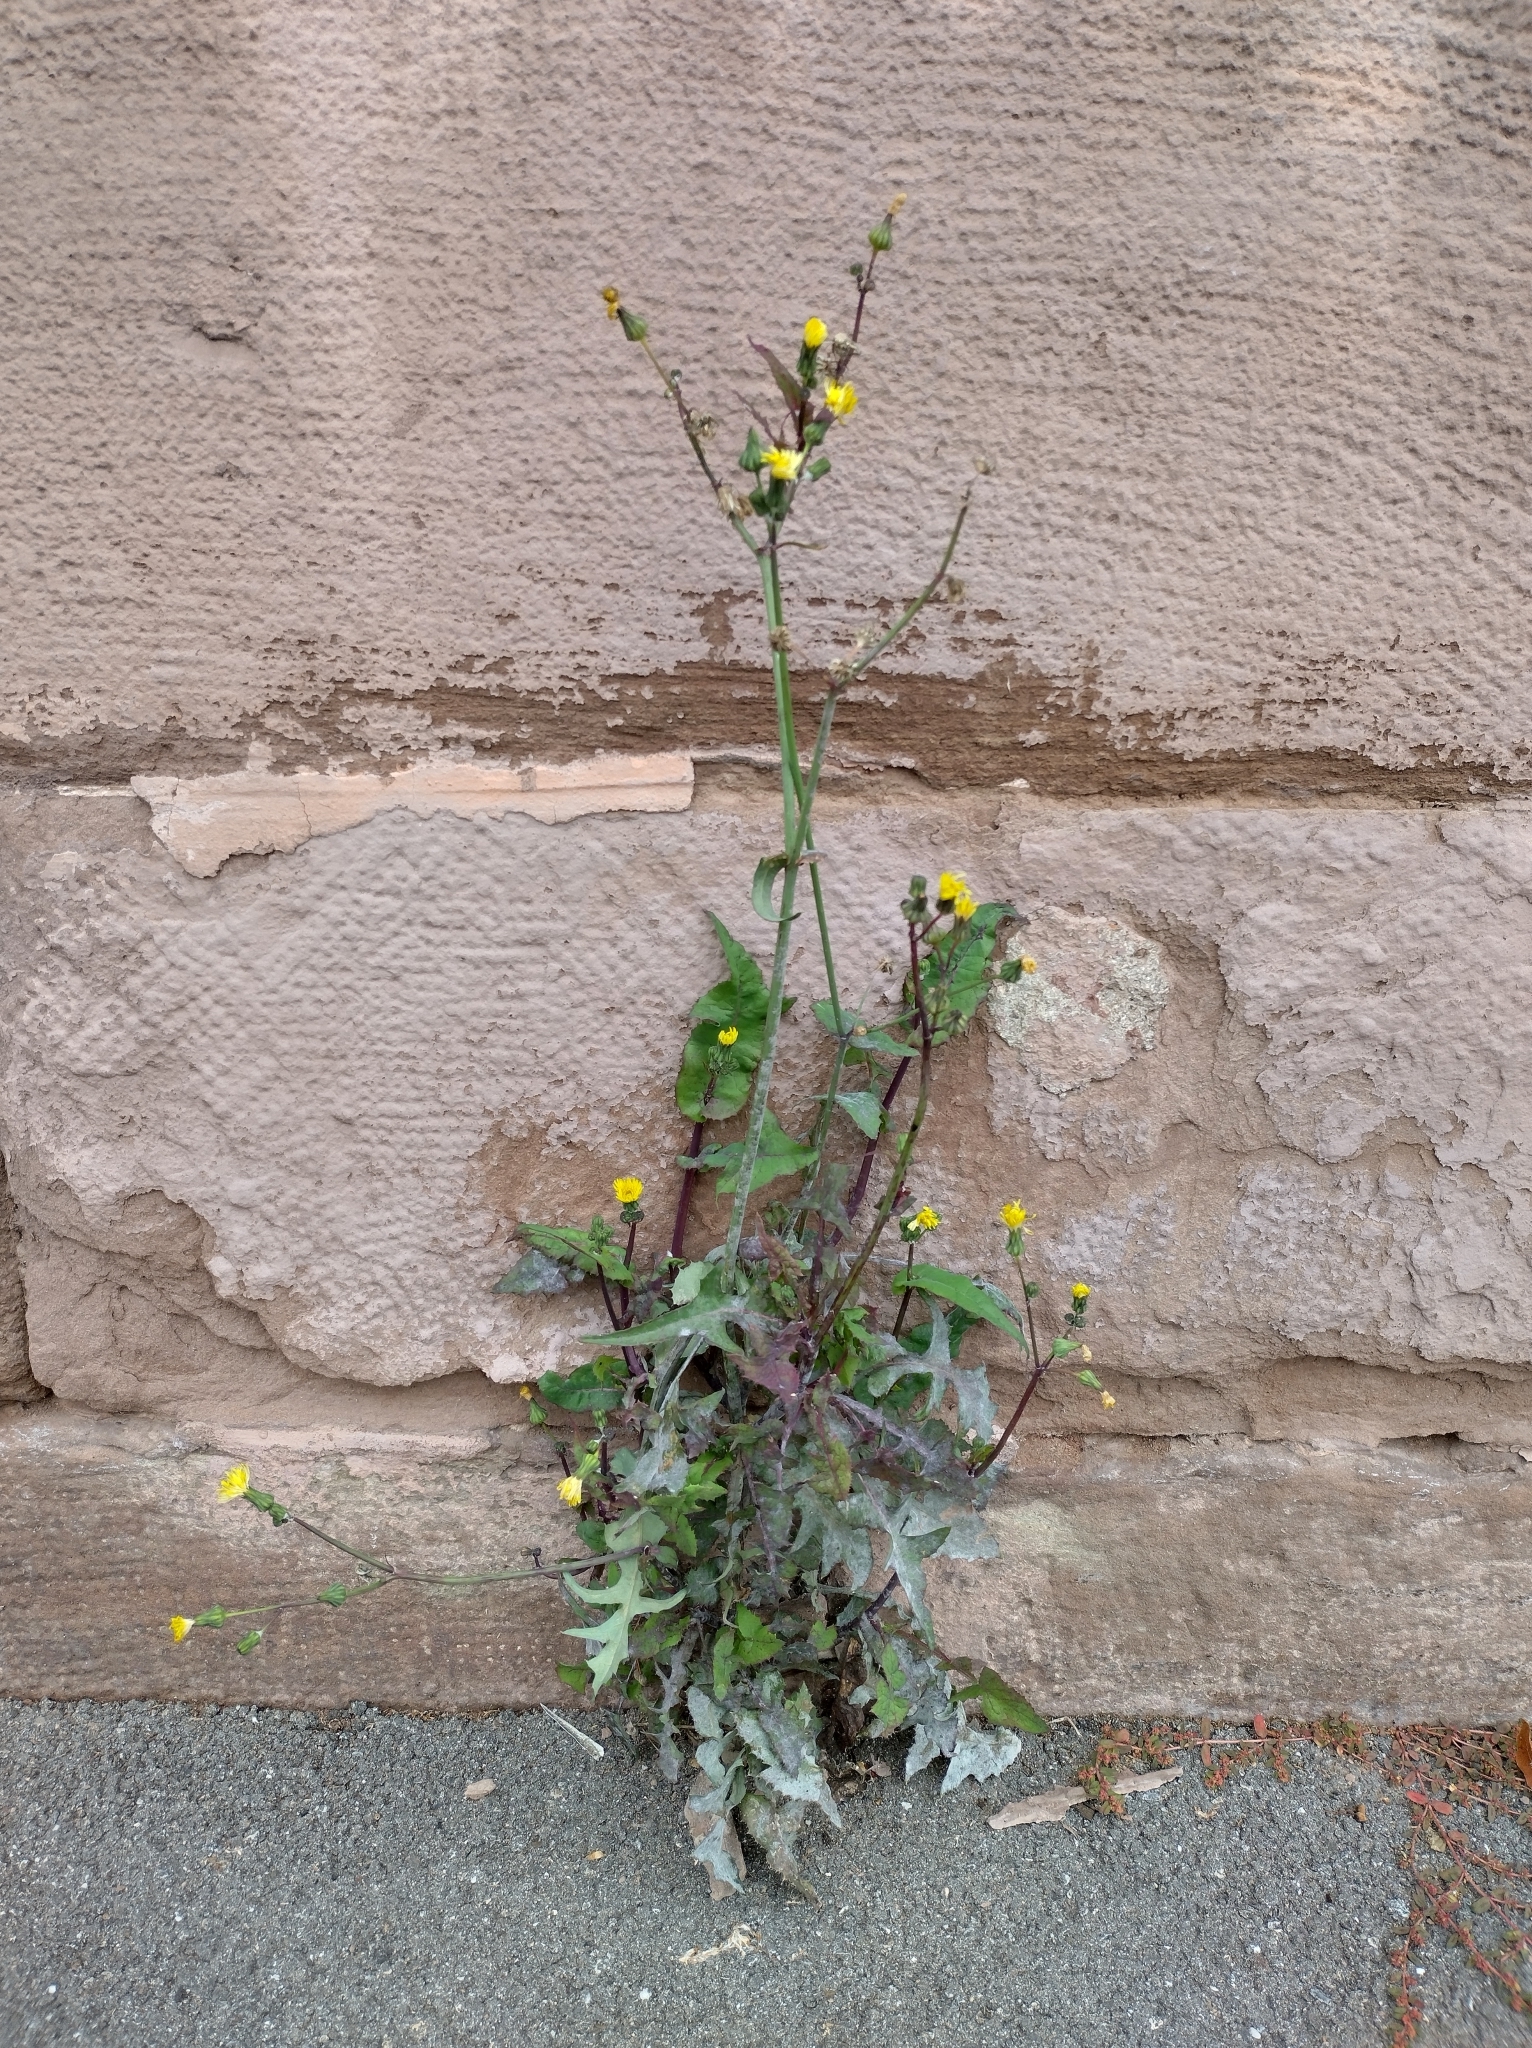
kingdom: Plantae
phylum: Tracheophyta
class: Magnoliopsida
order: Asterales
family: Asteraceae
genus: Sonchus
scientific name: Sonchus oleraceus
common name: Common sowthistle
